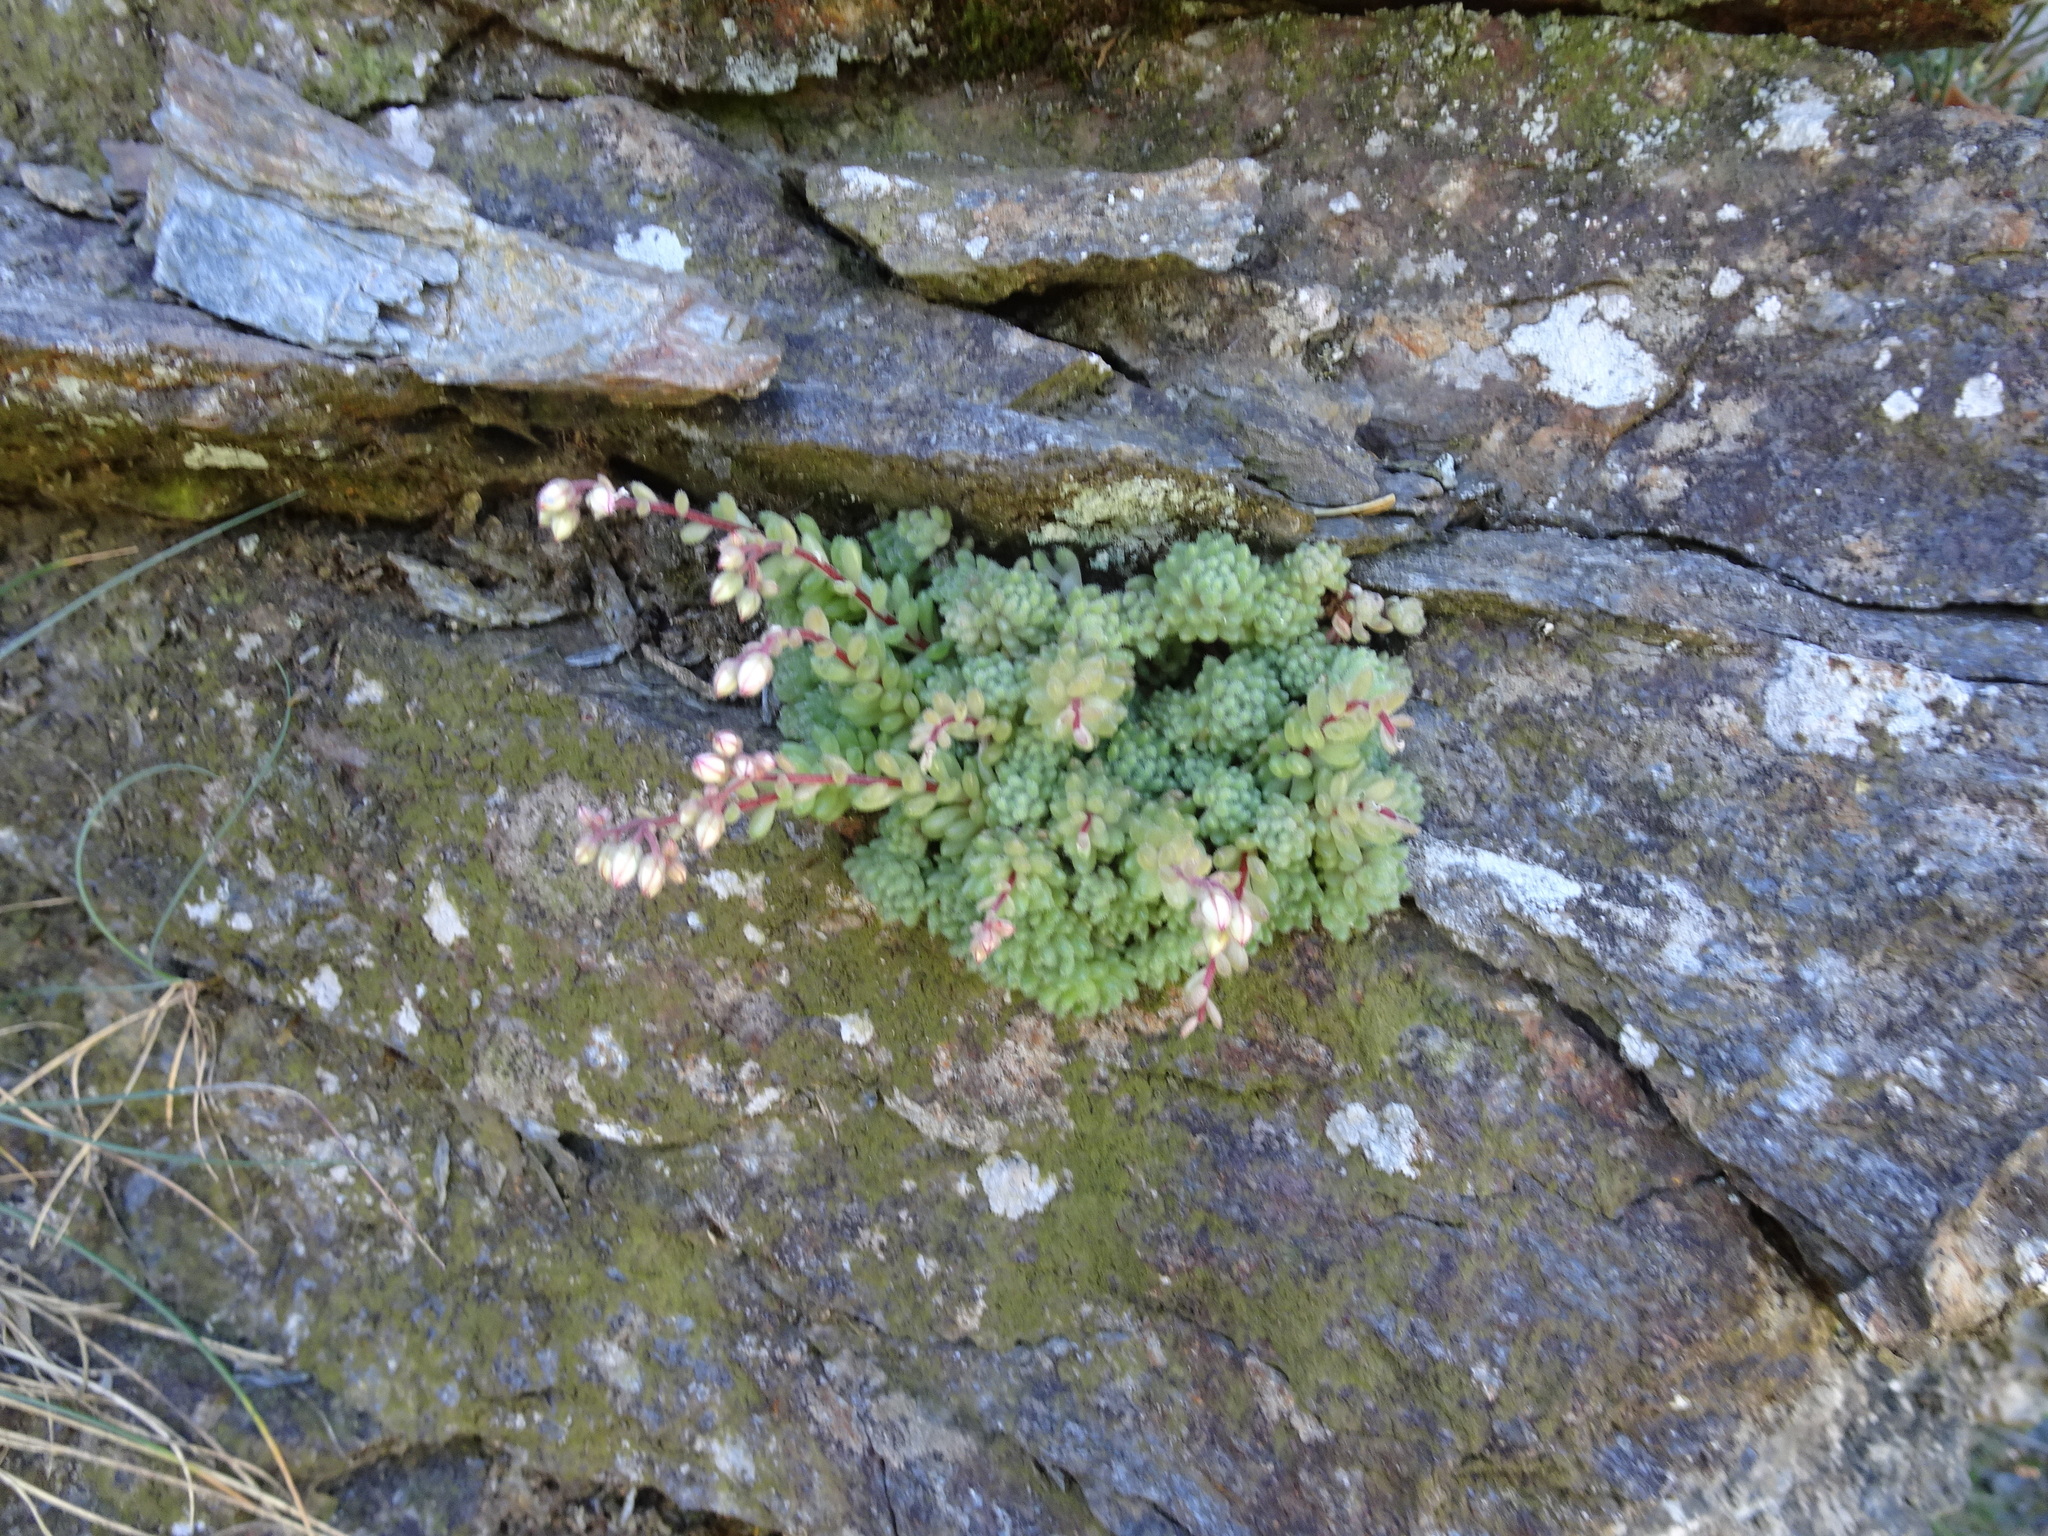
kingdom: Plantae
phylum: Tracheophyta
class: Magnoliopsida
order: Saxifragales
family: Crassulaceae
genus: Sedum
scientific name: Sedum hirsutum
